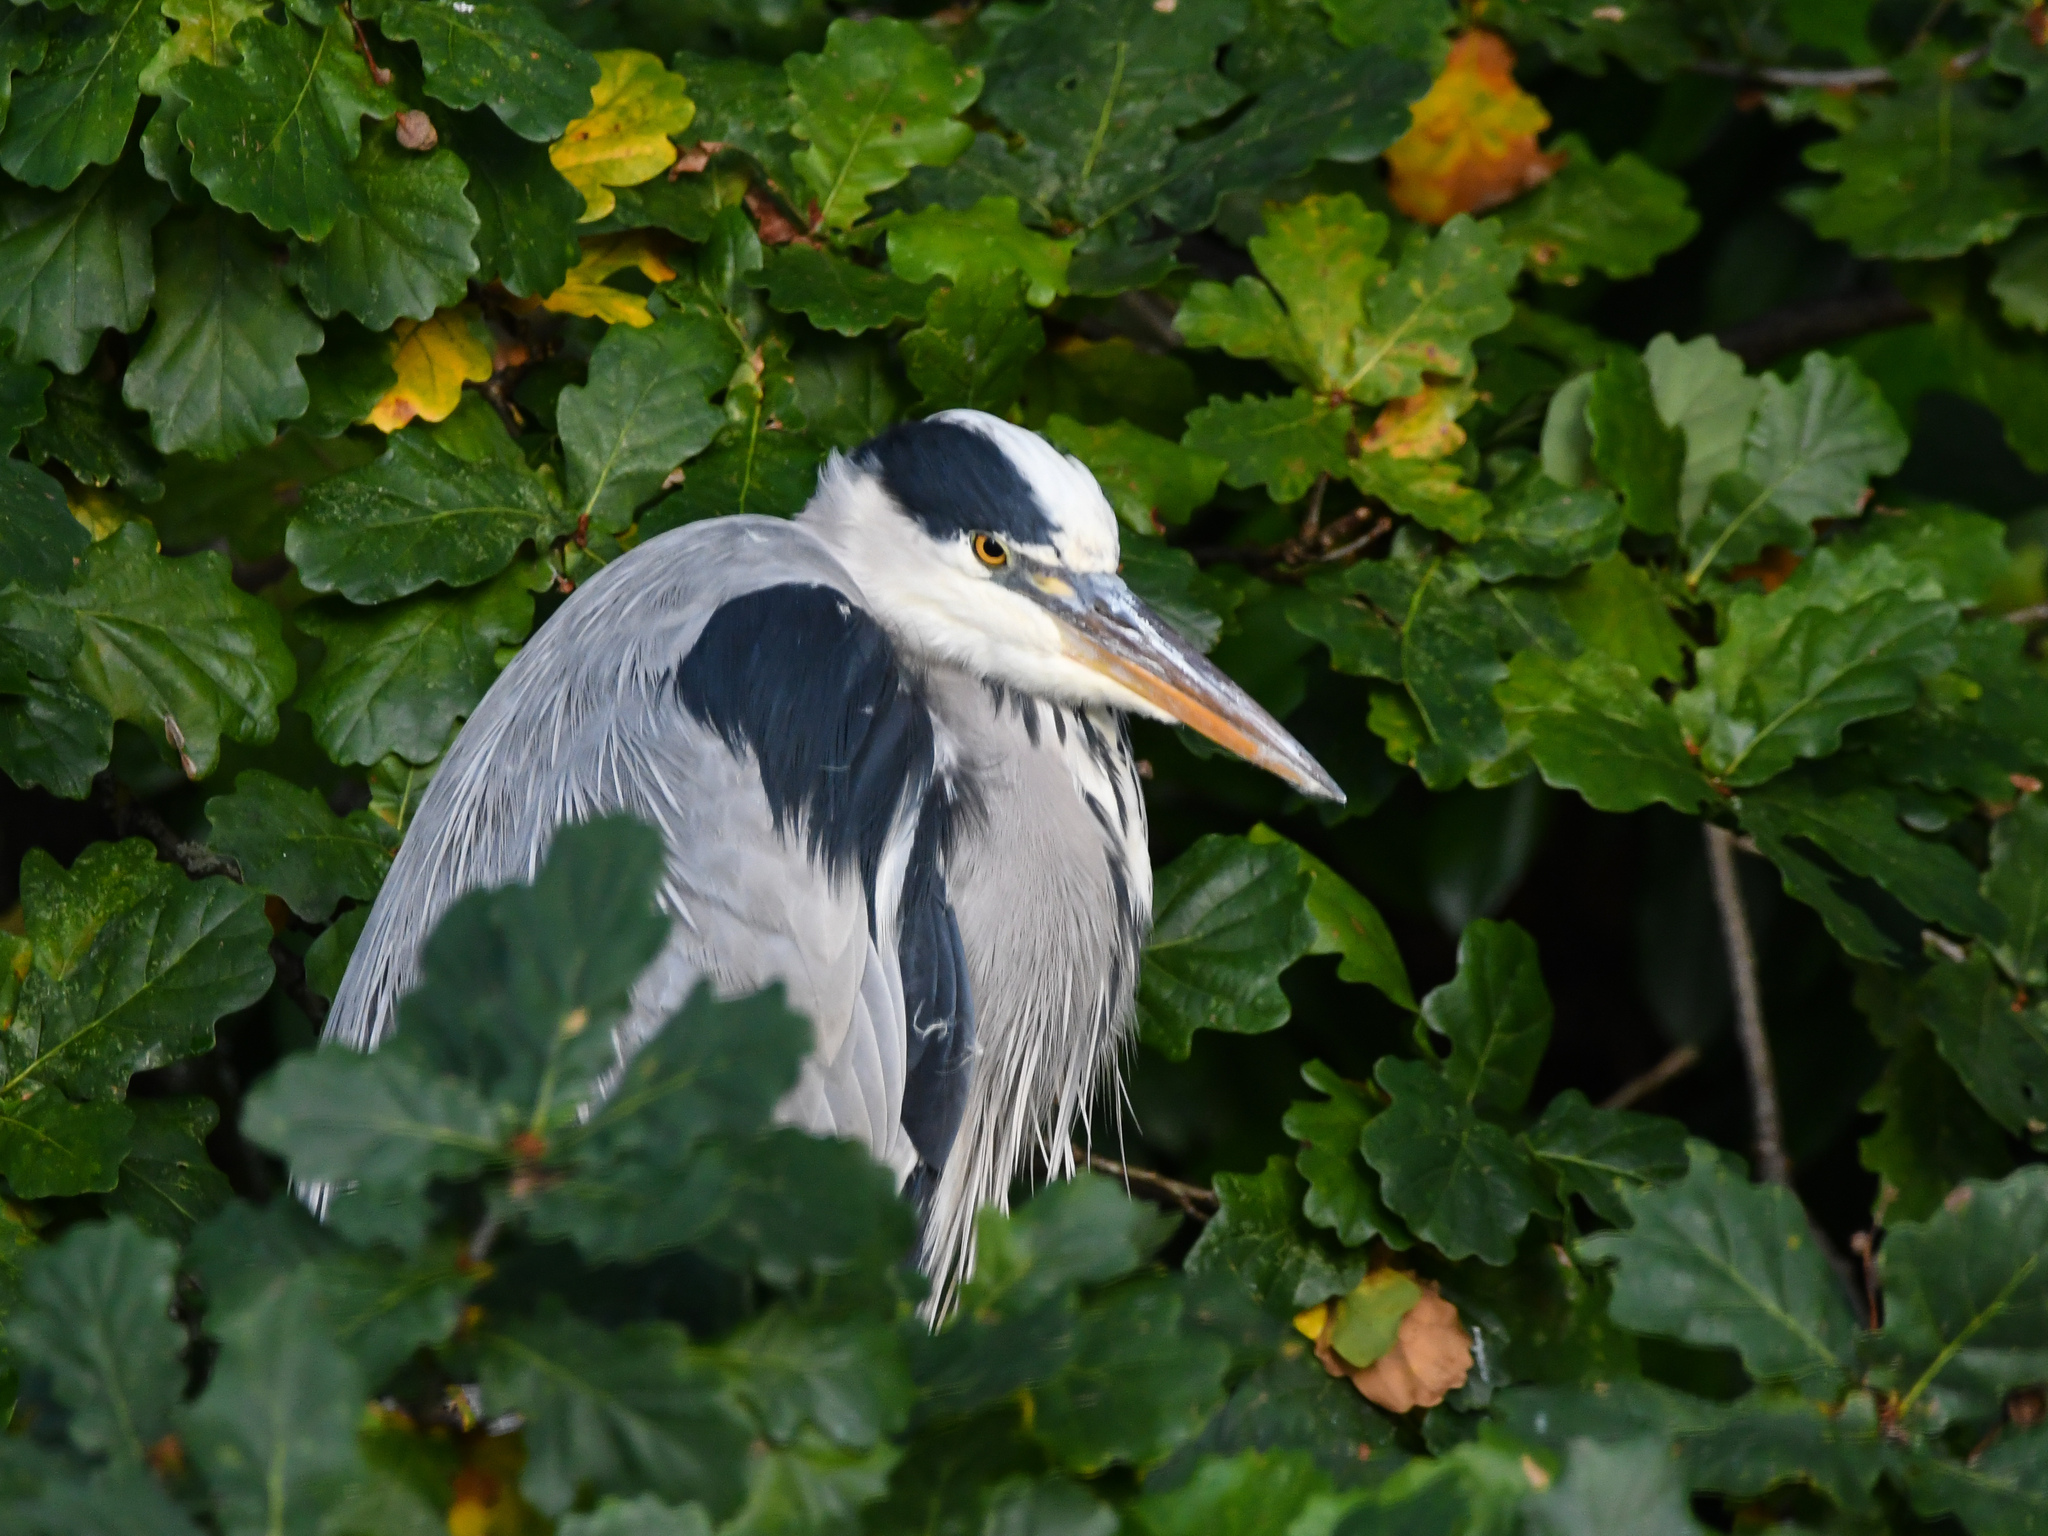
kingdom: Animalia
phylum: Chordata
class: Aves
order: Pelecaniformes
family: Ardeidae
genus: Ardea
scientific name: Ardea cinerea
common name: Grey heron
